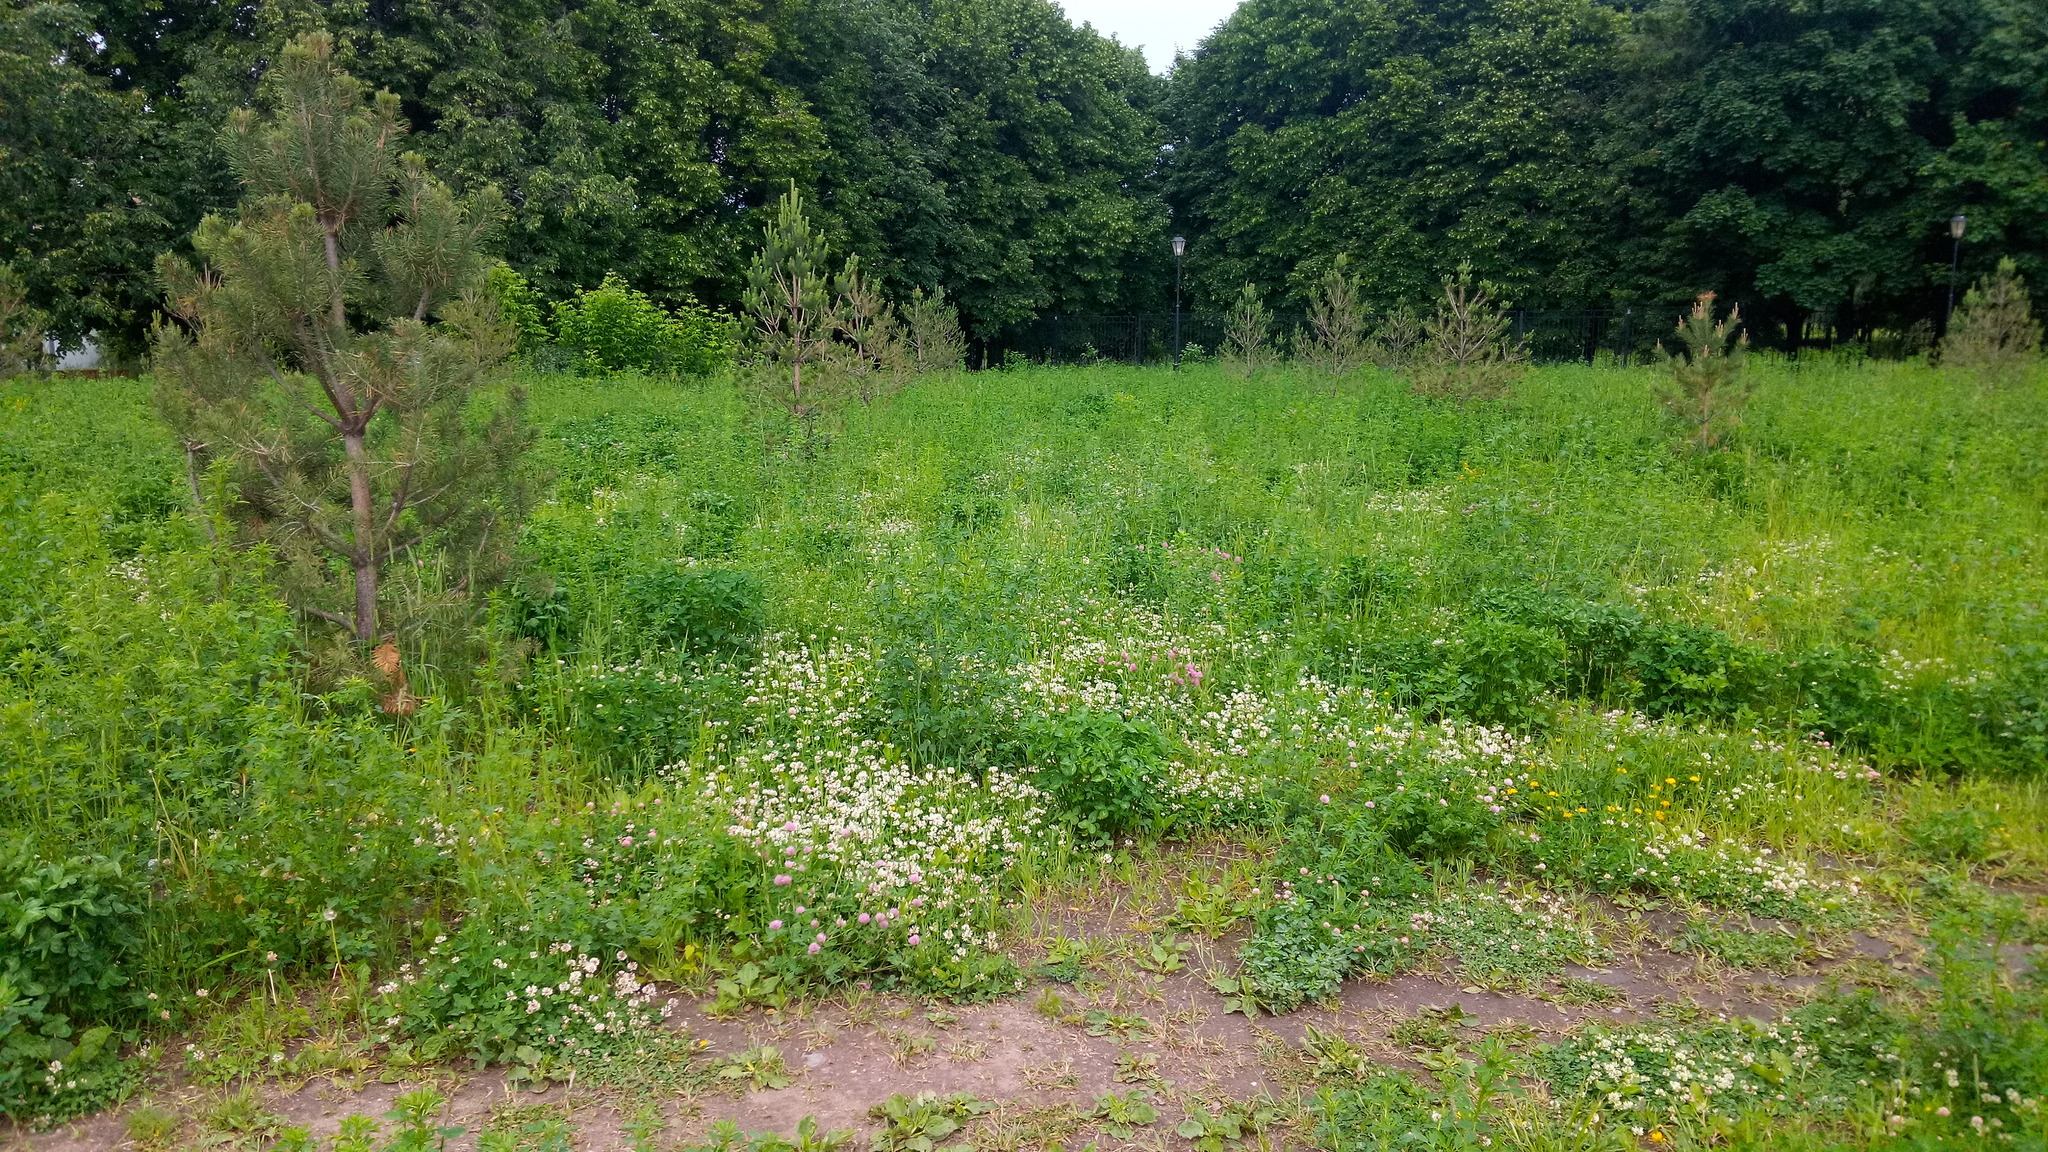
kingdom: Plantae
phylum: Tracheophyta
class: Magnoliopsida
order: Fabales
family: Fabaceae
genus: Trifolium
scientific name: Trifolium repens
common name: White clover
